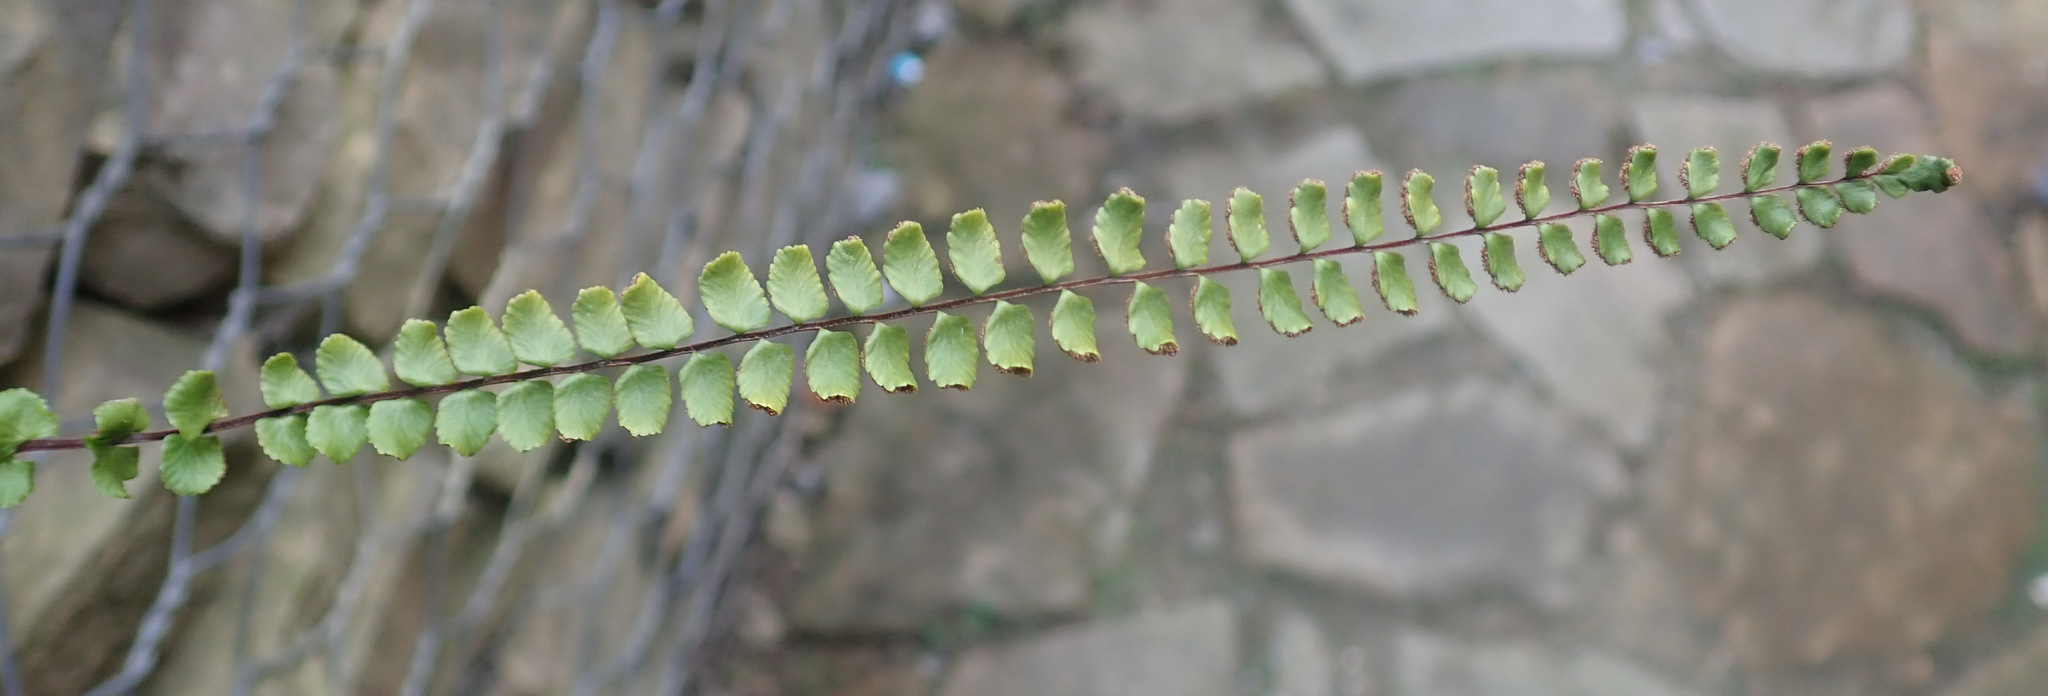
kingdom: Plantae
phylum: Tracheophyta
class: Polypodiopsida
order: Polypodiales
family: Aspleniaceae
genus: Asplenium
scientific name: Asplenium trichomanes
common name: Maidenhair spleenwort
